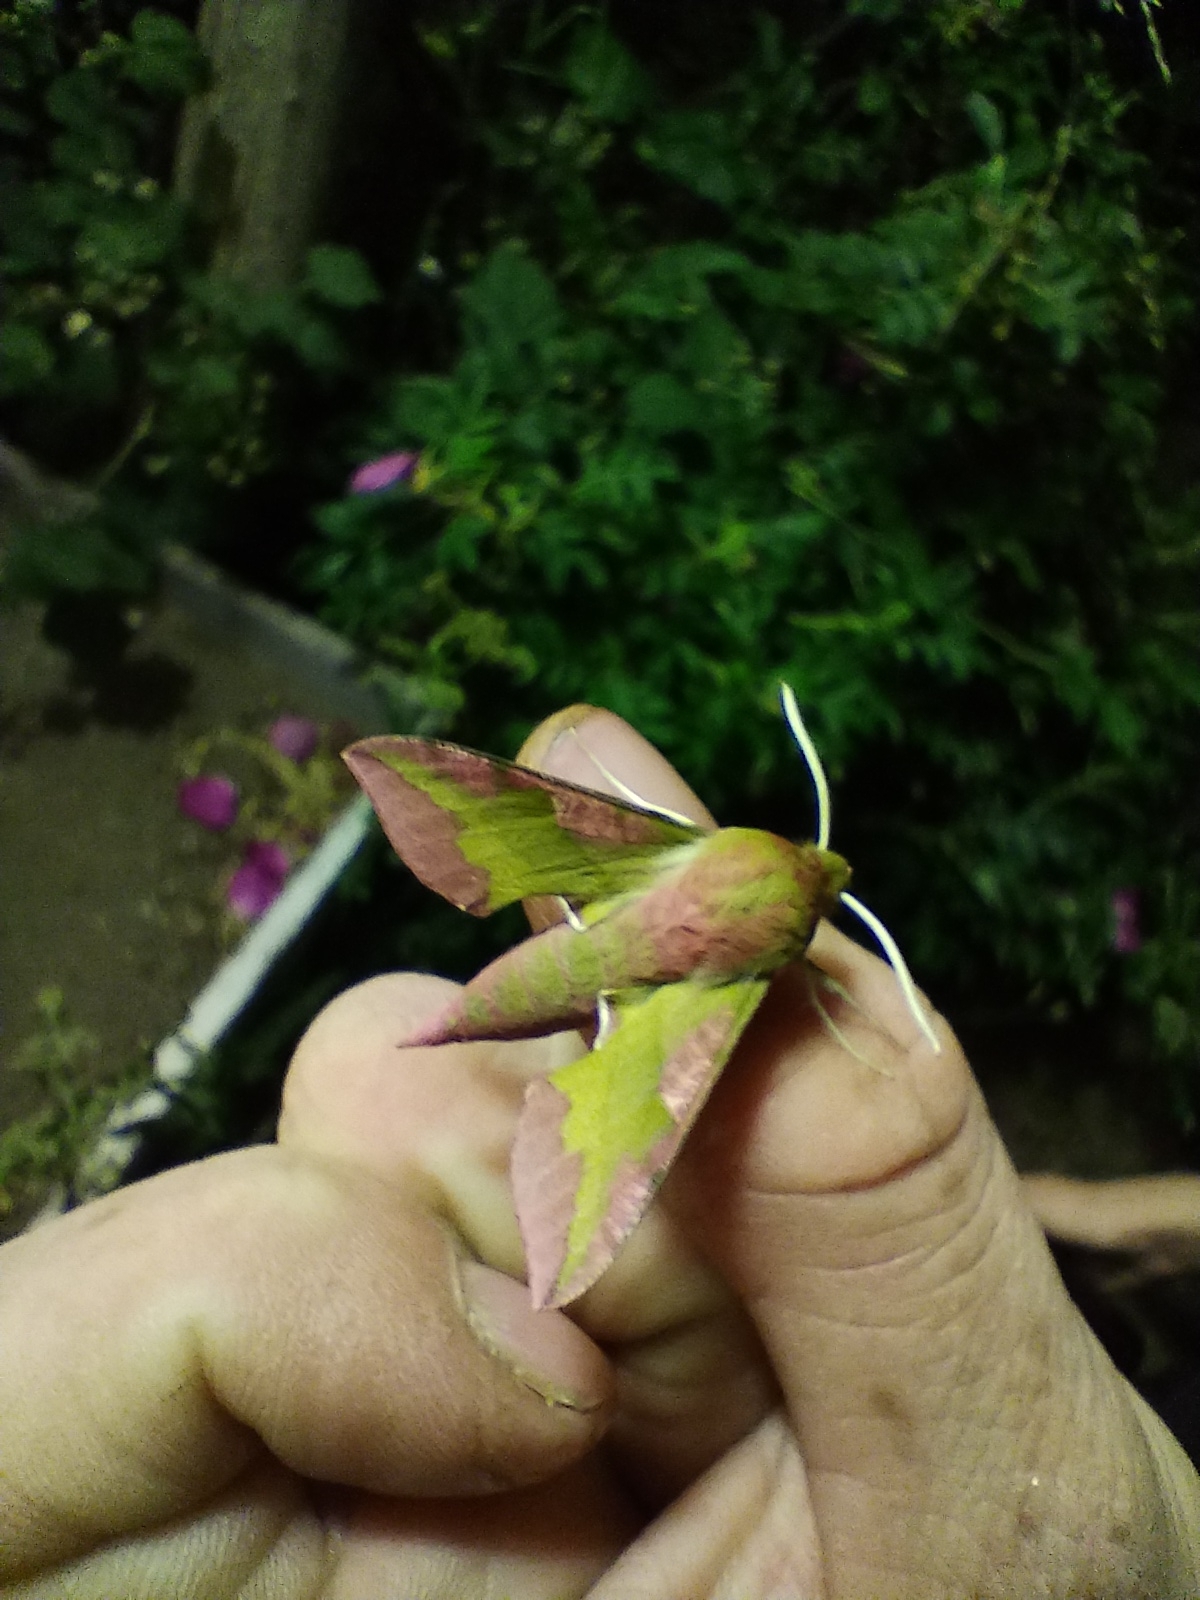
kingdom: Animalia
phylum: Arthropoda
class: Insecta
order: Lepidoptera
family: Sphingidae
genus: Deilephila
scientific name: Deilephila porcellus
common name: Small elephant hawk-moth
